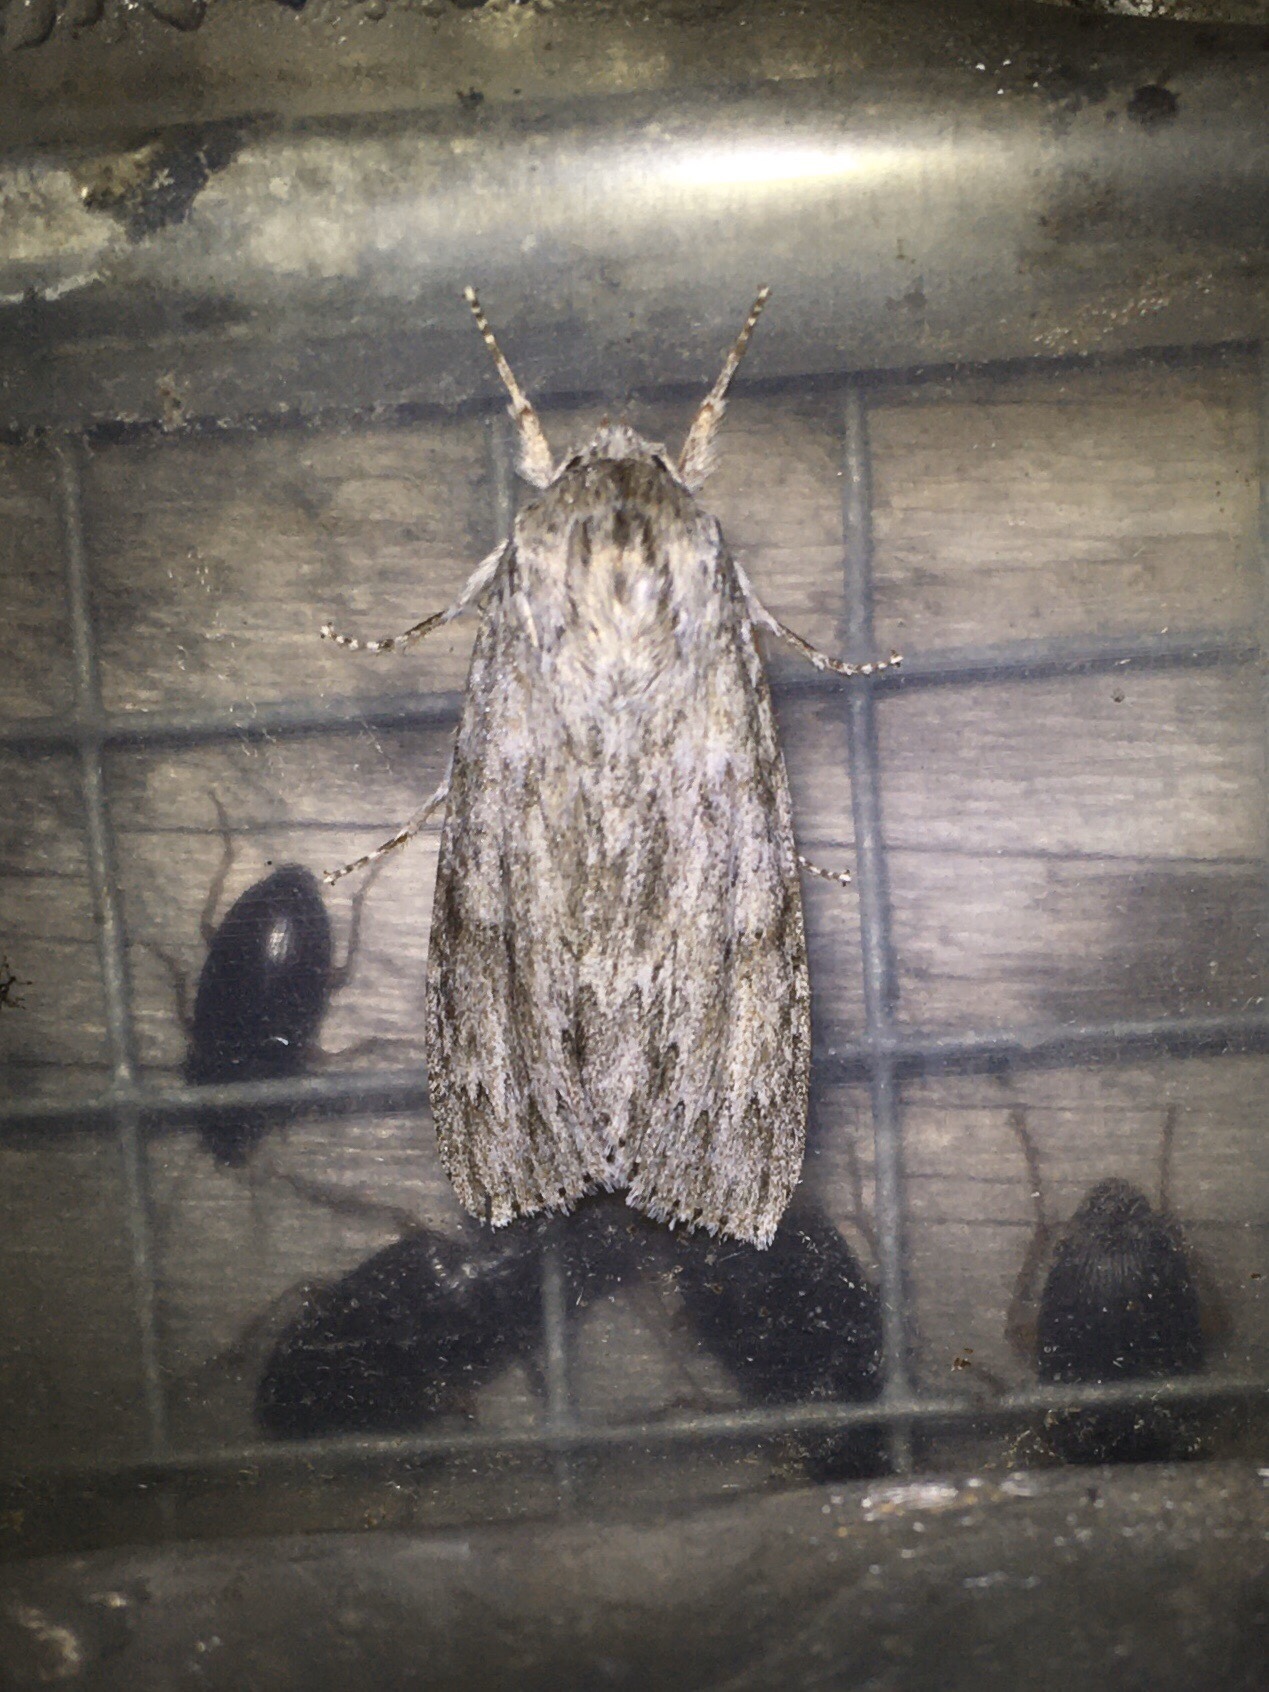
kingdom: Animalia
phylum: Arthropoda
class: Insecta
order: Lepidoptera
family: Noctuidae
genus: Acronicta
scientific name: Acronicta oblinita
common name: Smeared dagger
